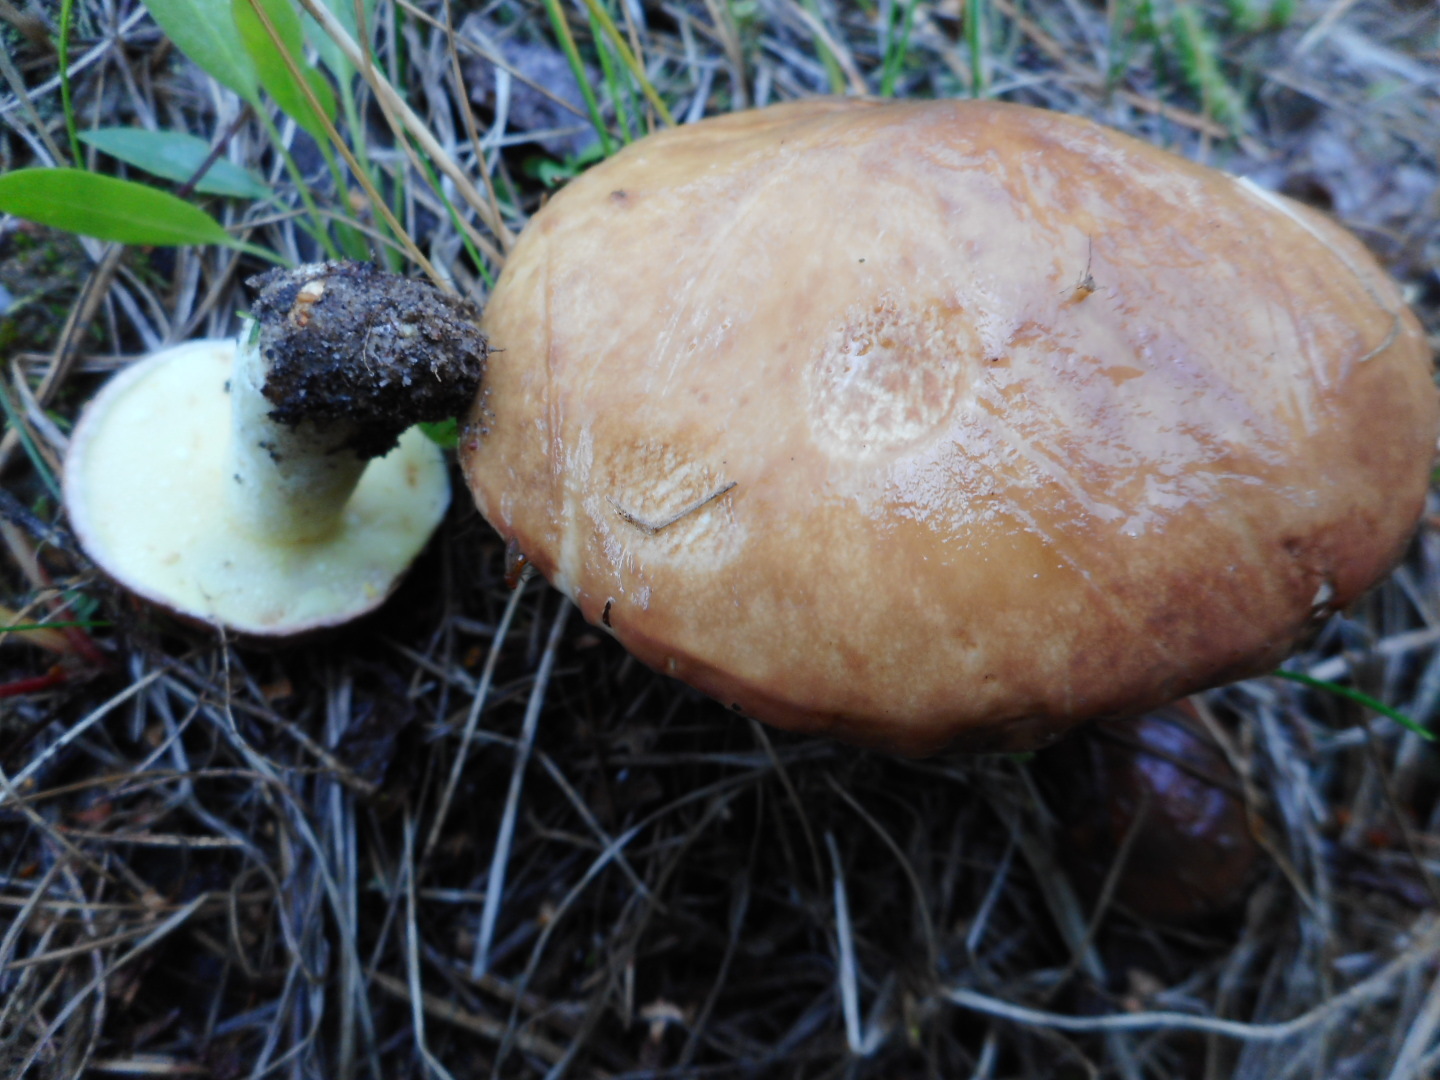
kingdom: Fungi
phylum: Basidiomycota
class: Agaricomycetes
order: Boletales
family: Suillaceae
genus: Suillus
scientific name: Suillus granulatus
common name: Weeping bolete
